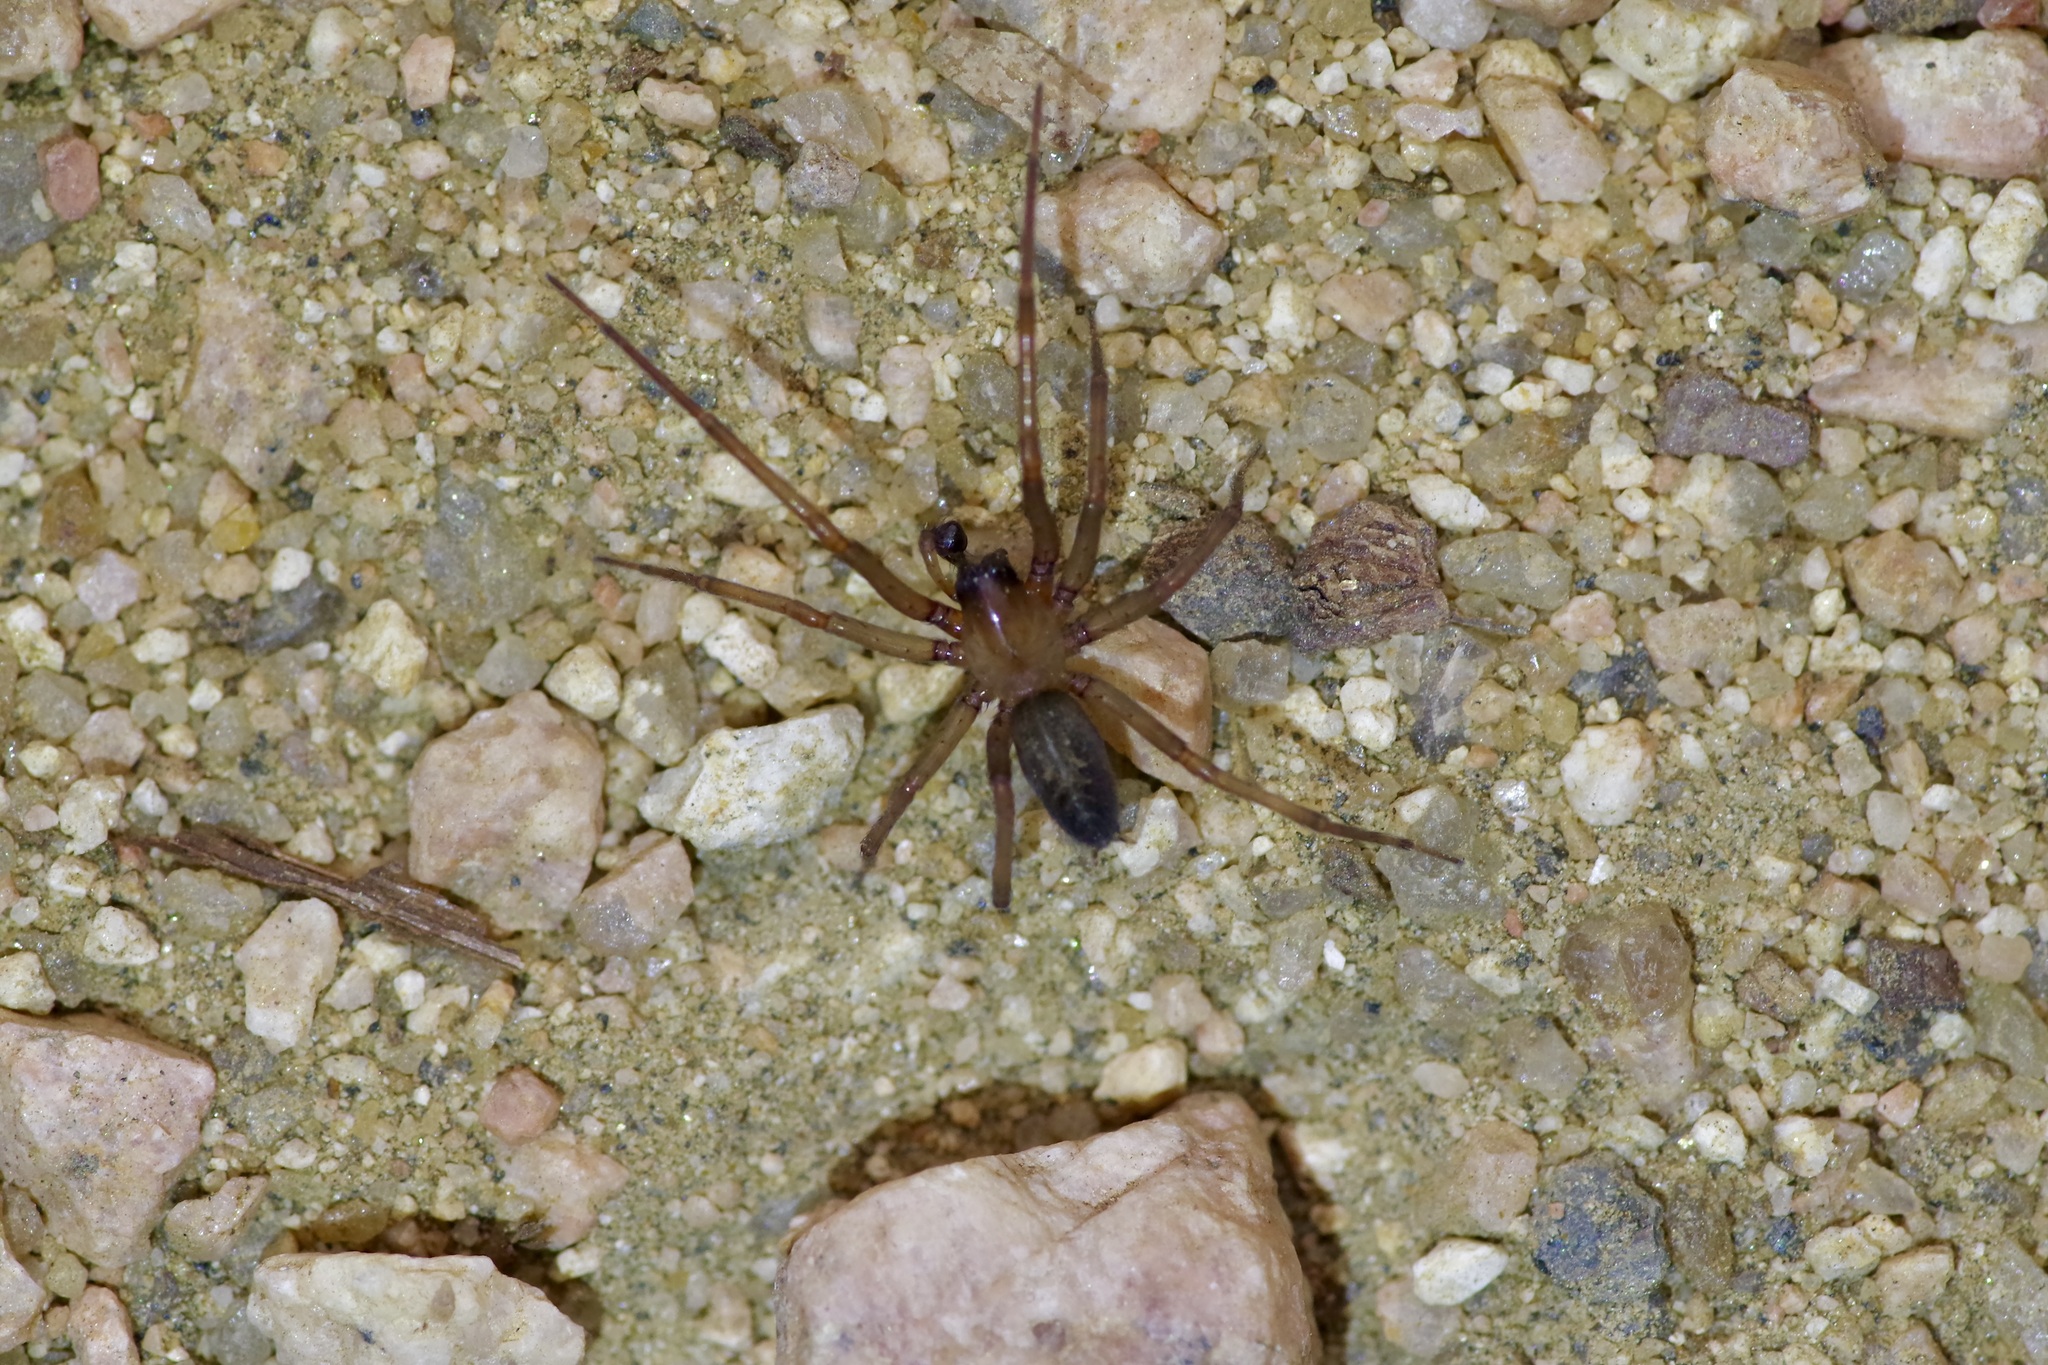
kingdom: Animalia
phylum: Arthropoda
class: Arachnida
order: Araneae
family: Desidae
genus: Metaltella
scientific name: Metaltella simoni
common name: Cribellate spider
